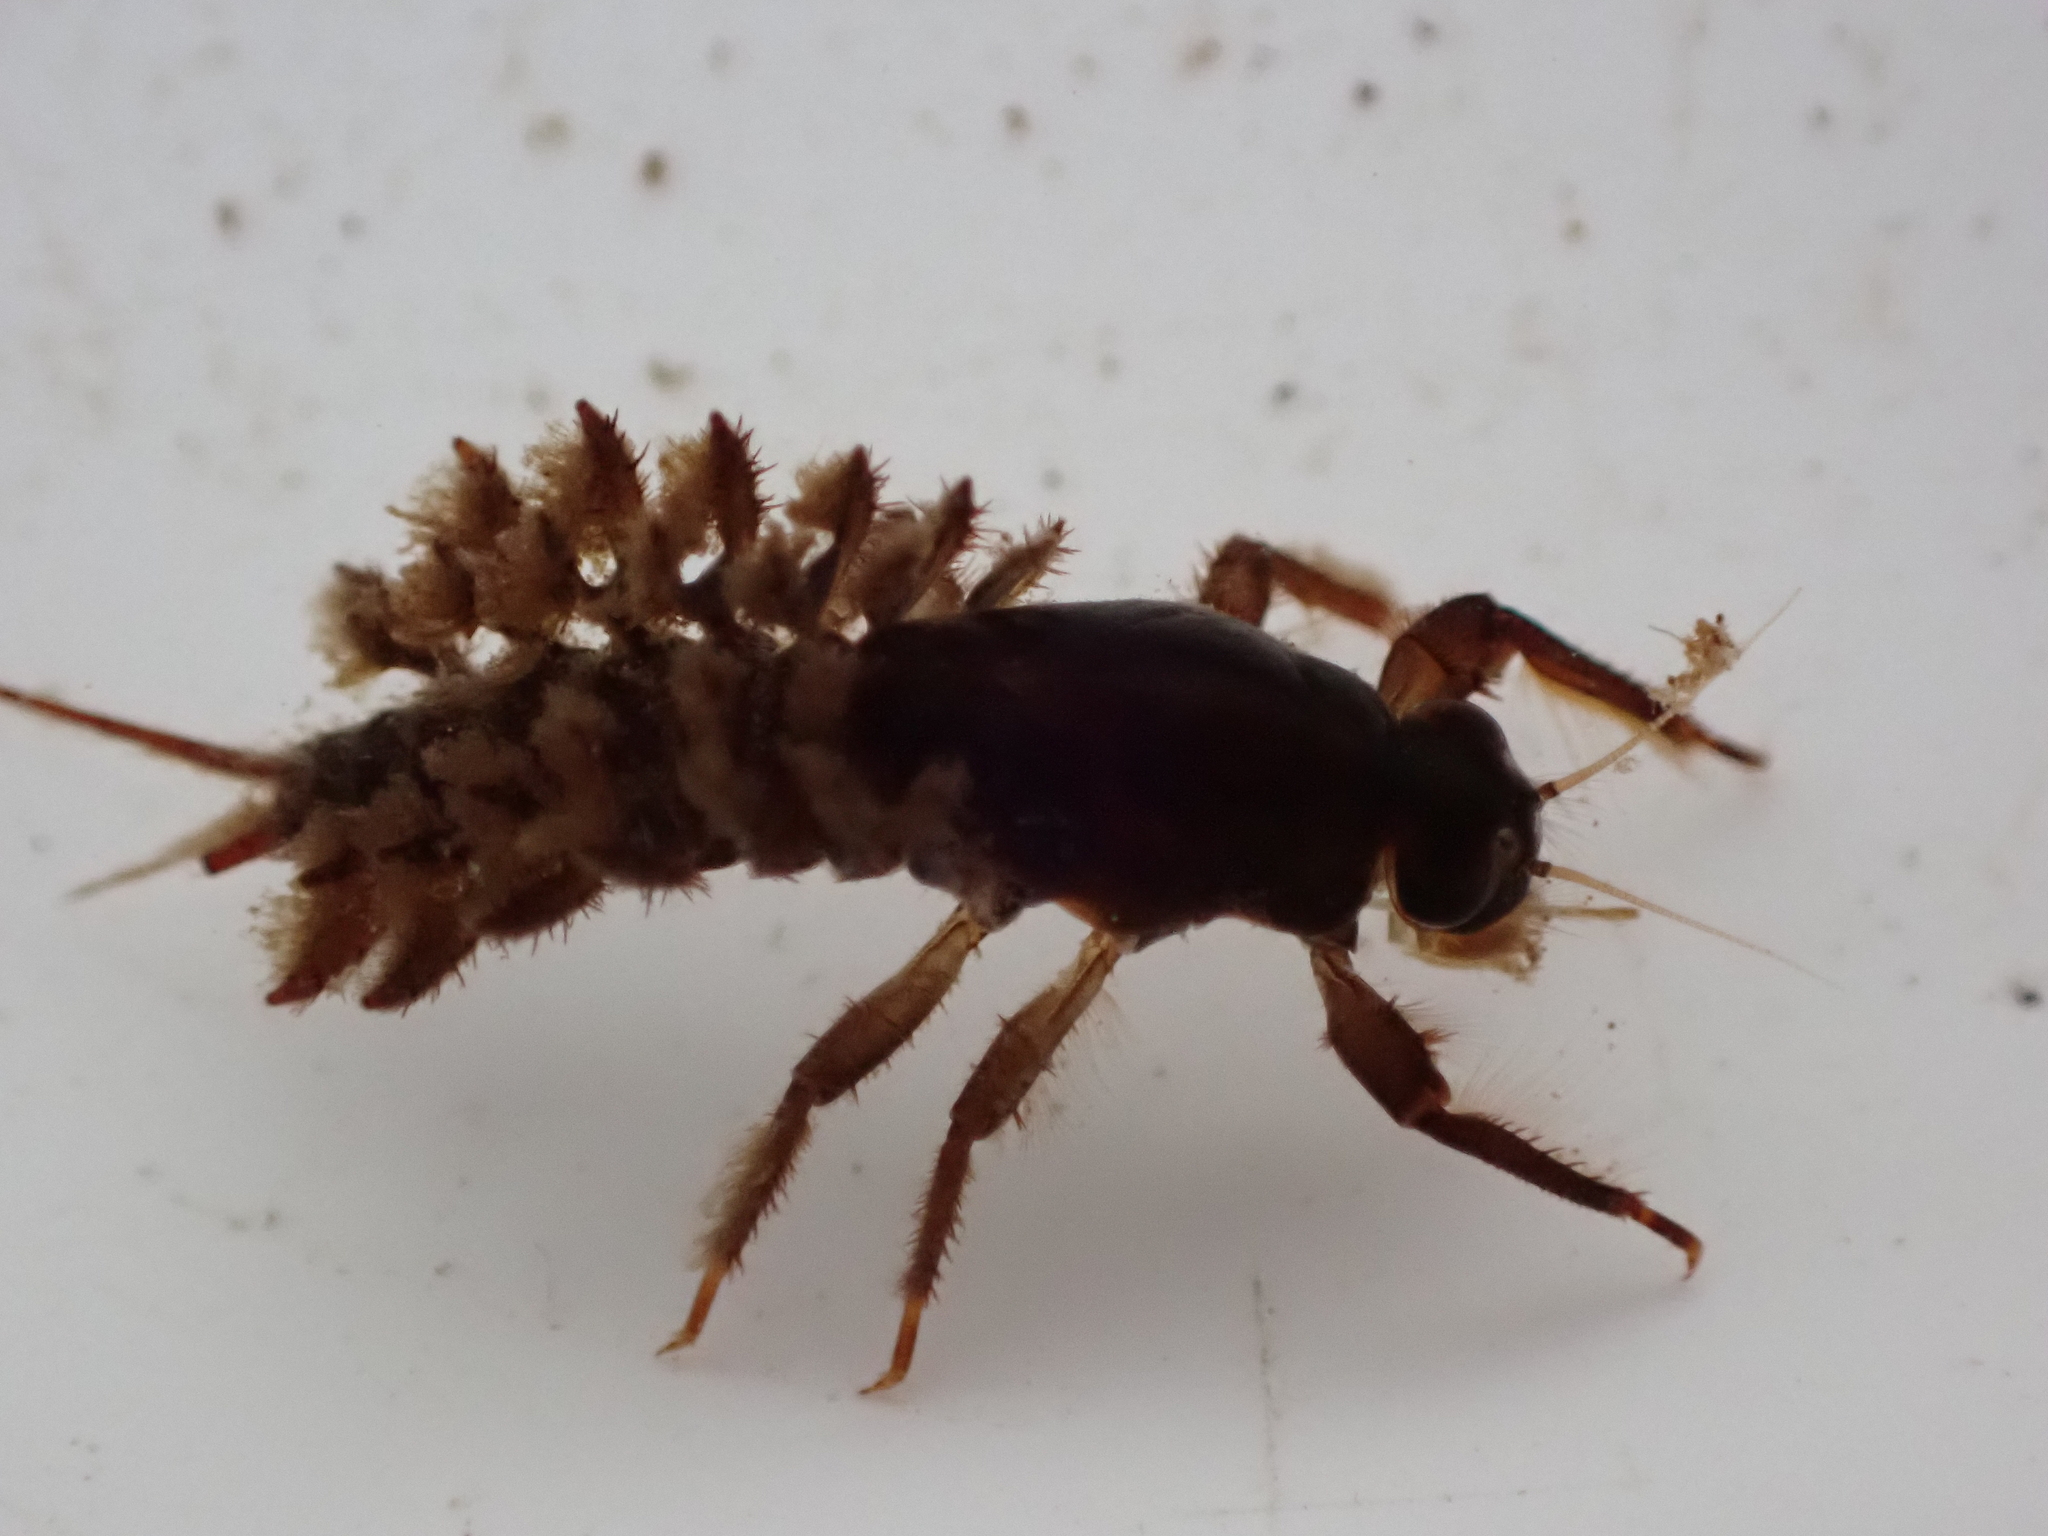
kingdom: Animalia
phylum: Arthropoda
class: Insecta
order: Ephemeroptera
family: Coloburiscidae
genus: Coloburiscus
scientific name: Coloburiscus humeralis
